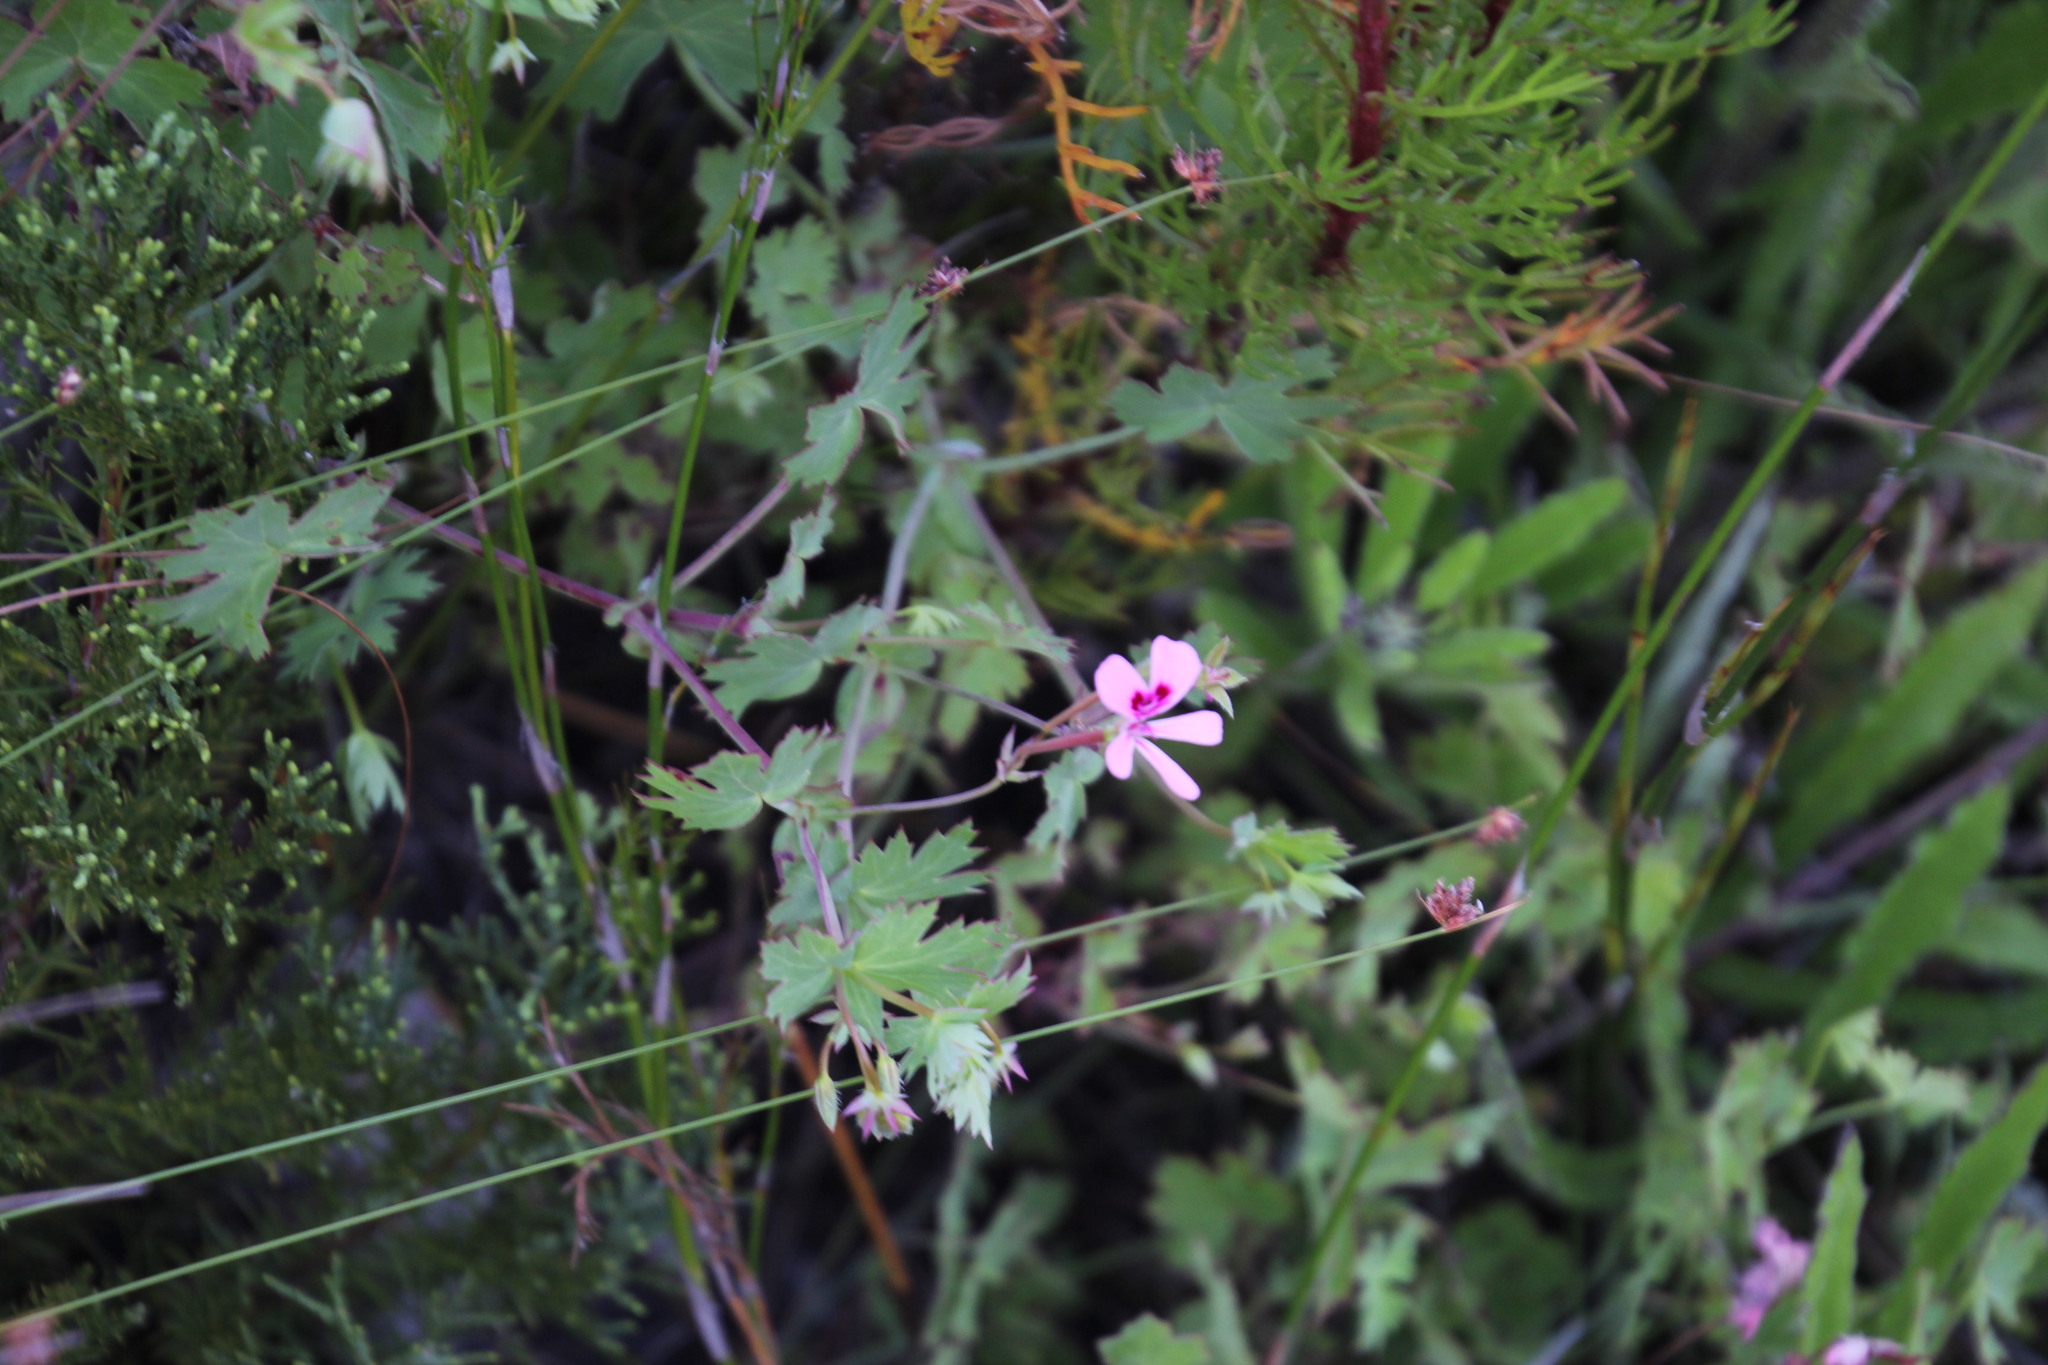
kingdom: Plantae
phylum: Tracheophyta
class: Magnoliopsida
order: Geraniales
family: Geraniaceae
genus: Pelargonium
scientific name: Pelargonium patulum
